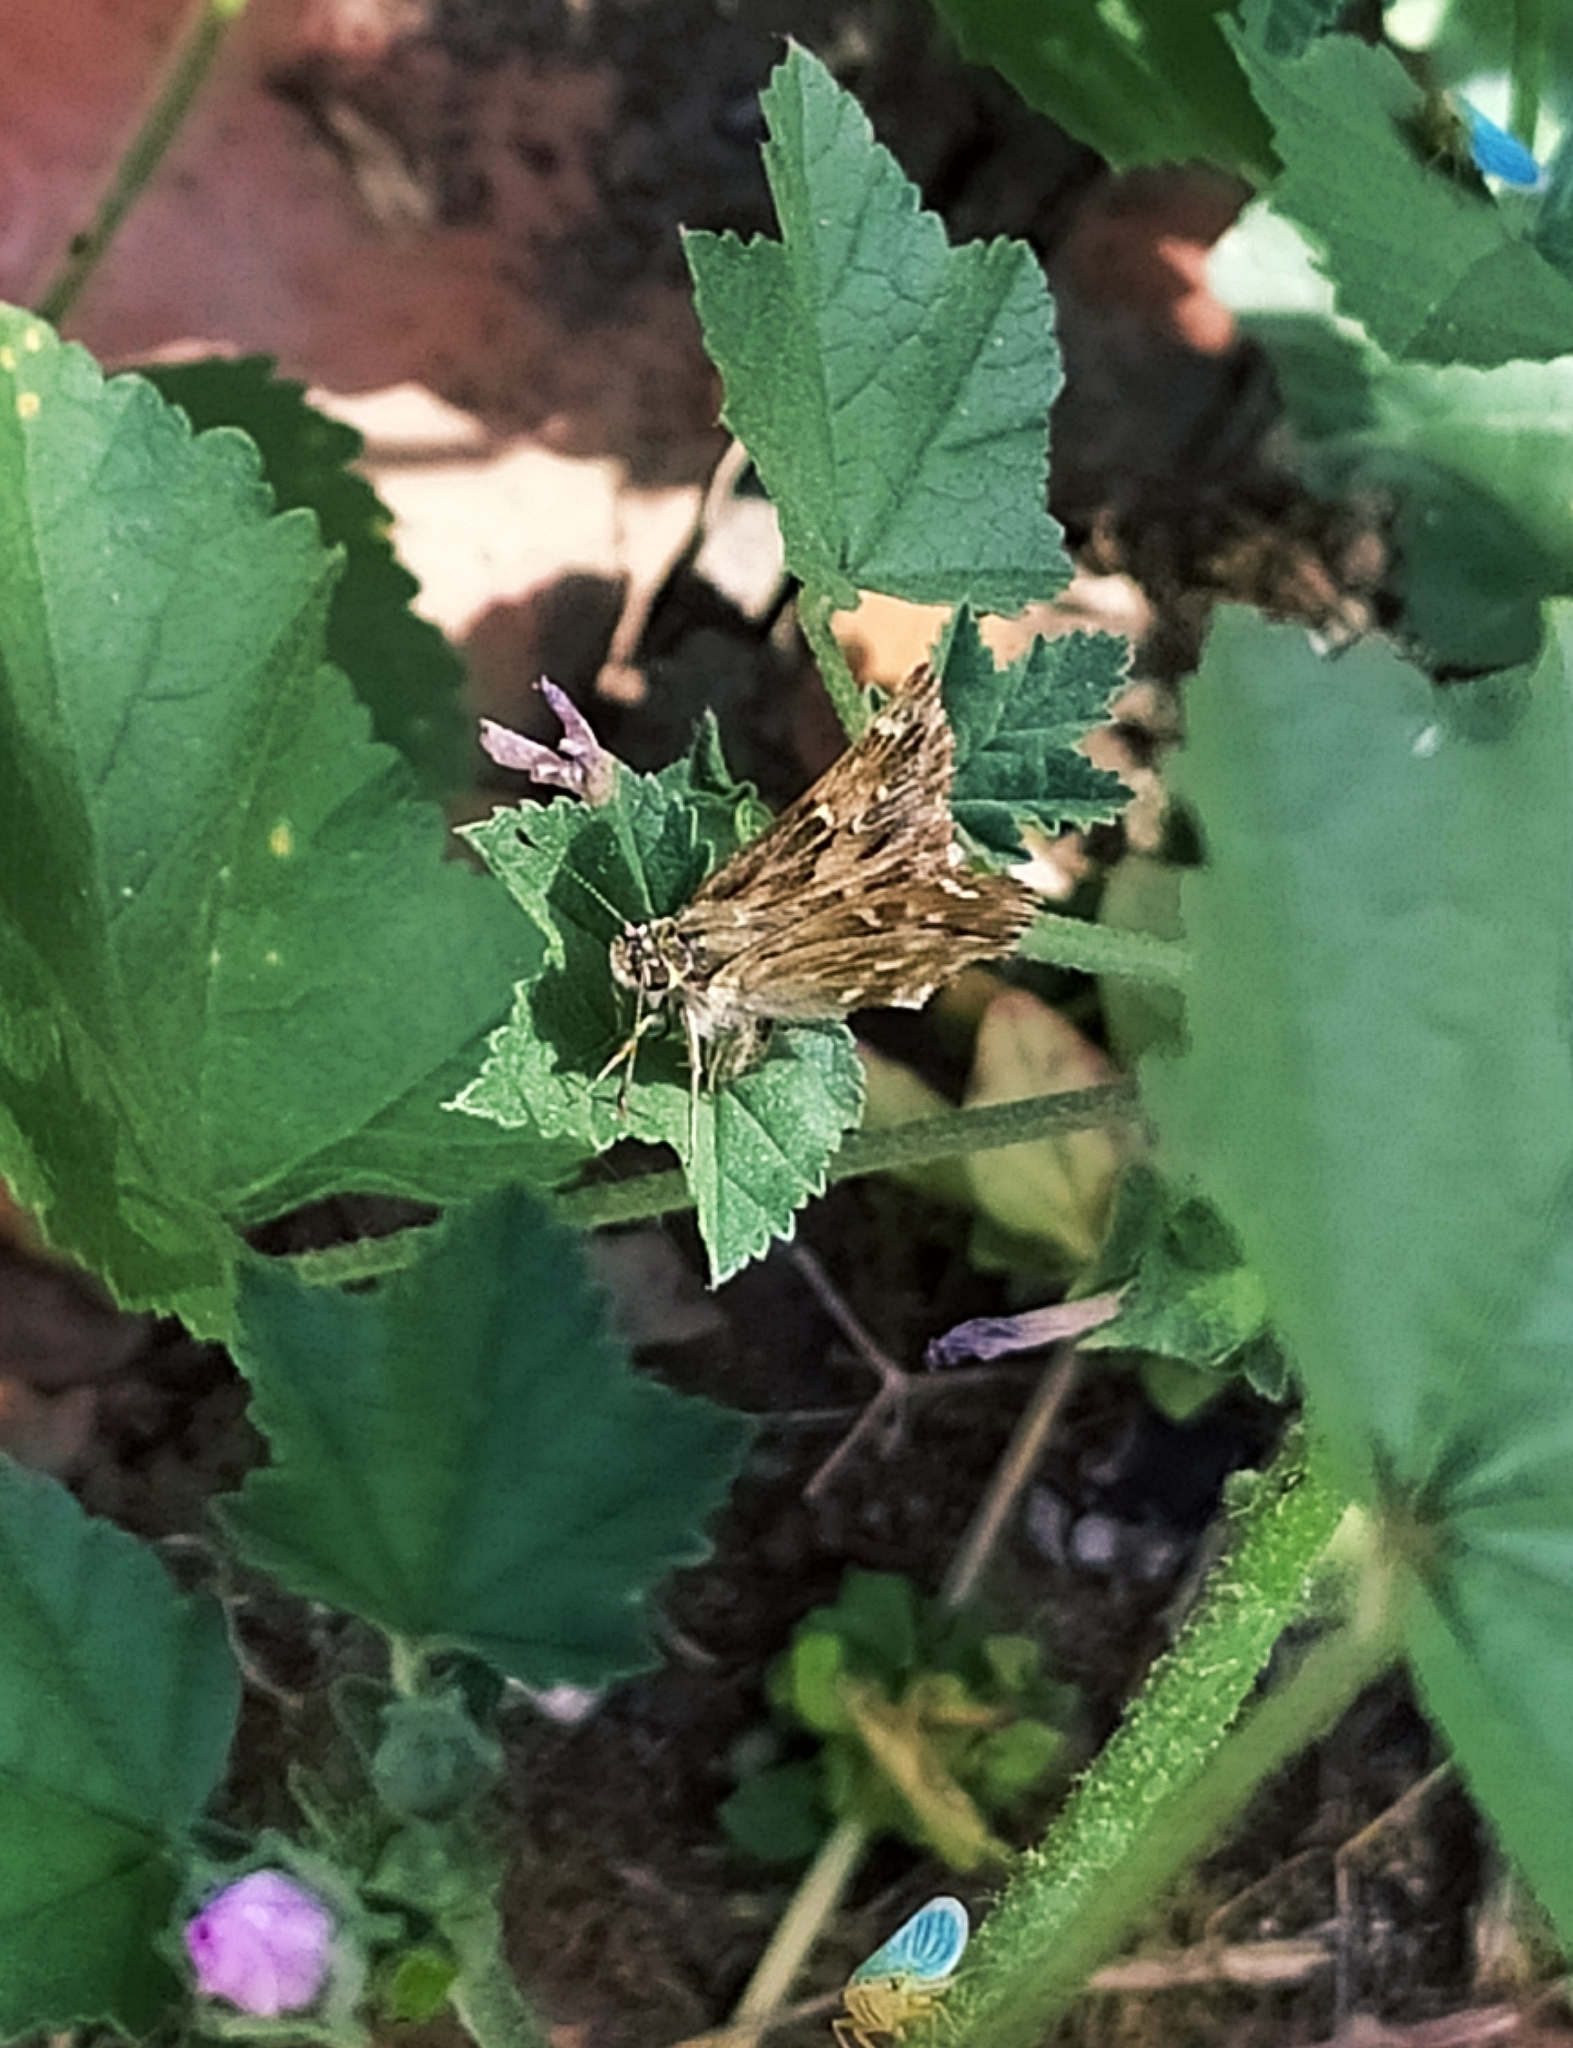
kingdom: Animalia
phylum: Arthropoda
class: Insecta
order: Lepidoptera
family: Hesperiidae
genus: Carcharodus
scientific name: Carcharodus alceae
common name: Mallow skipper
